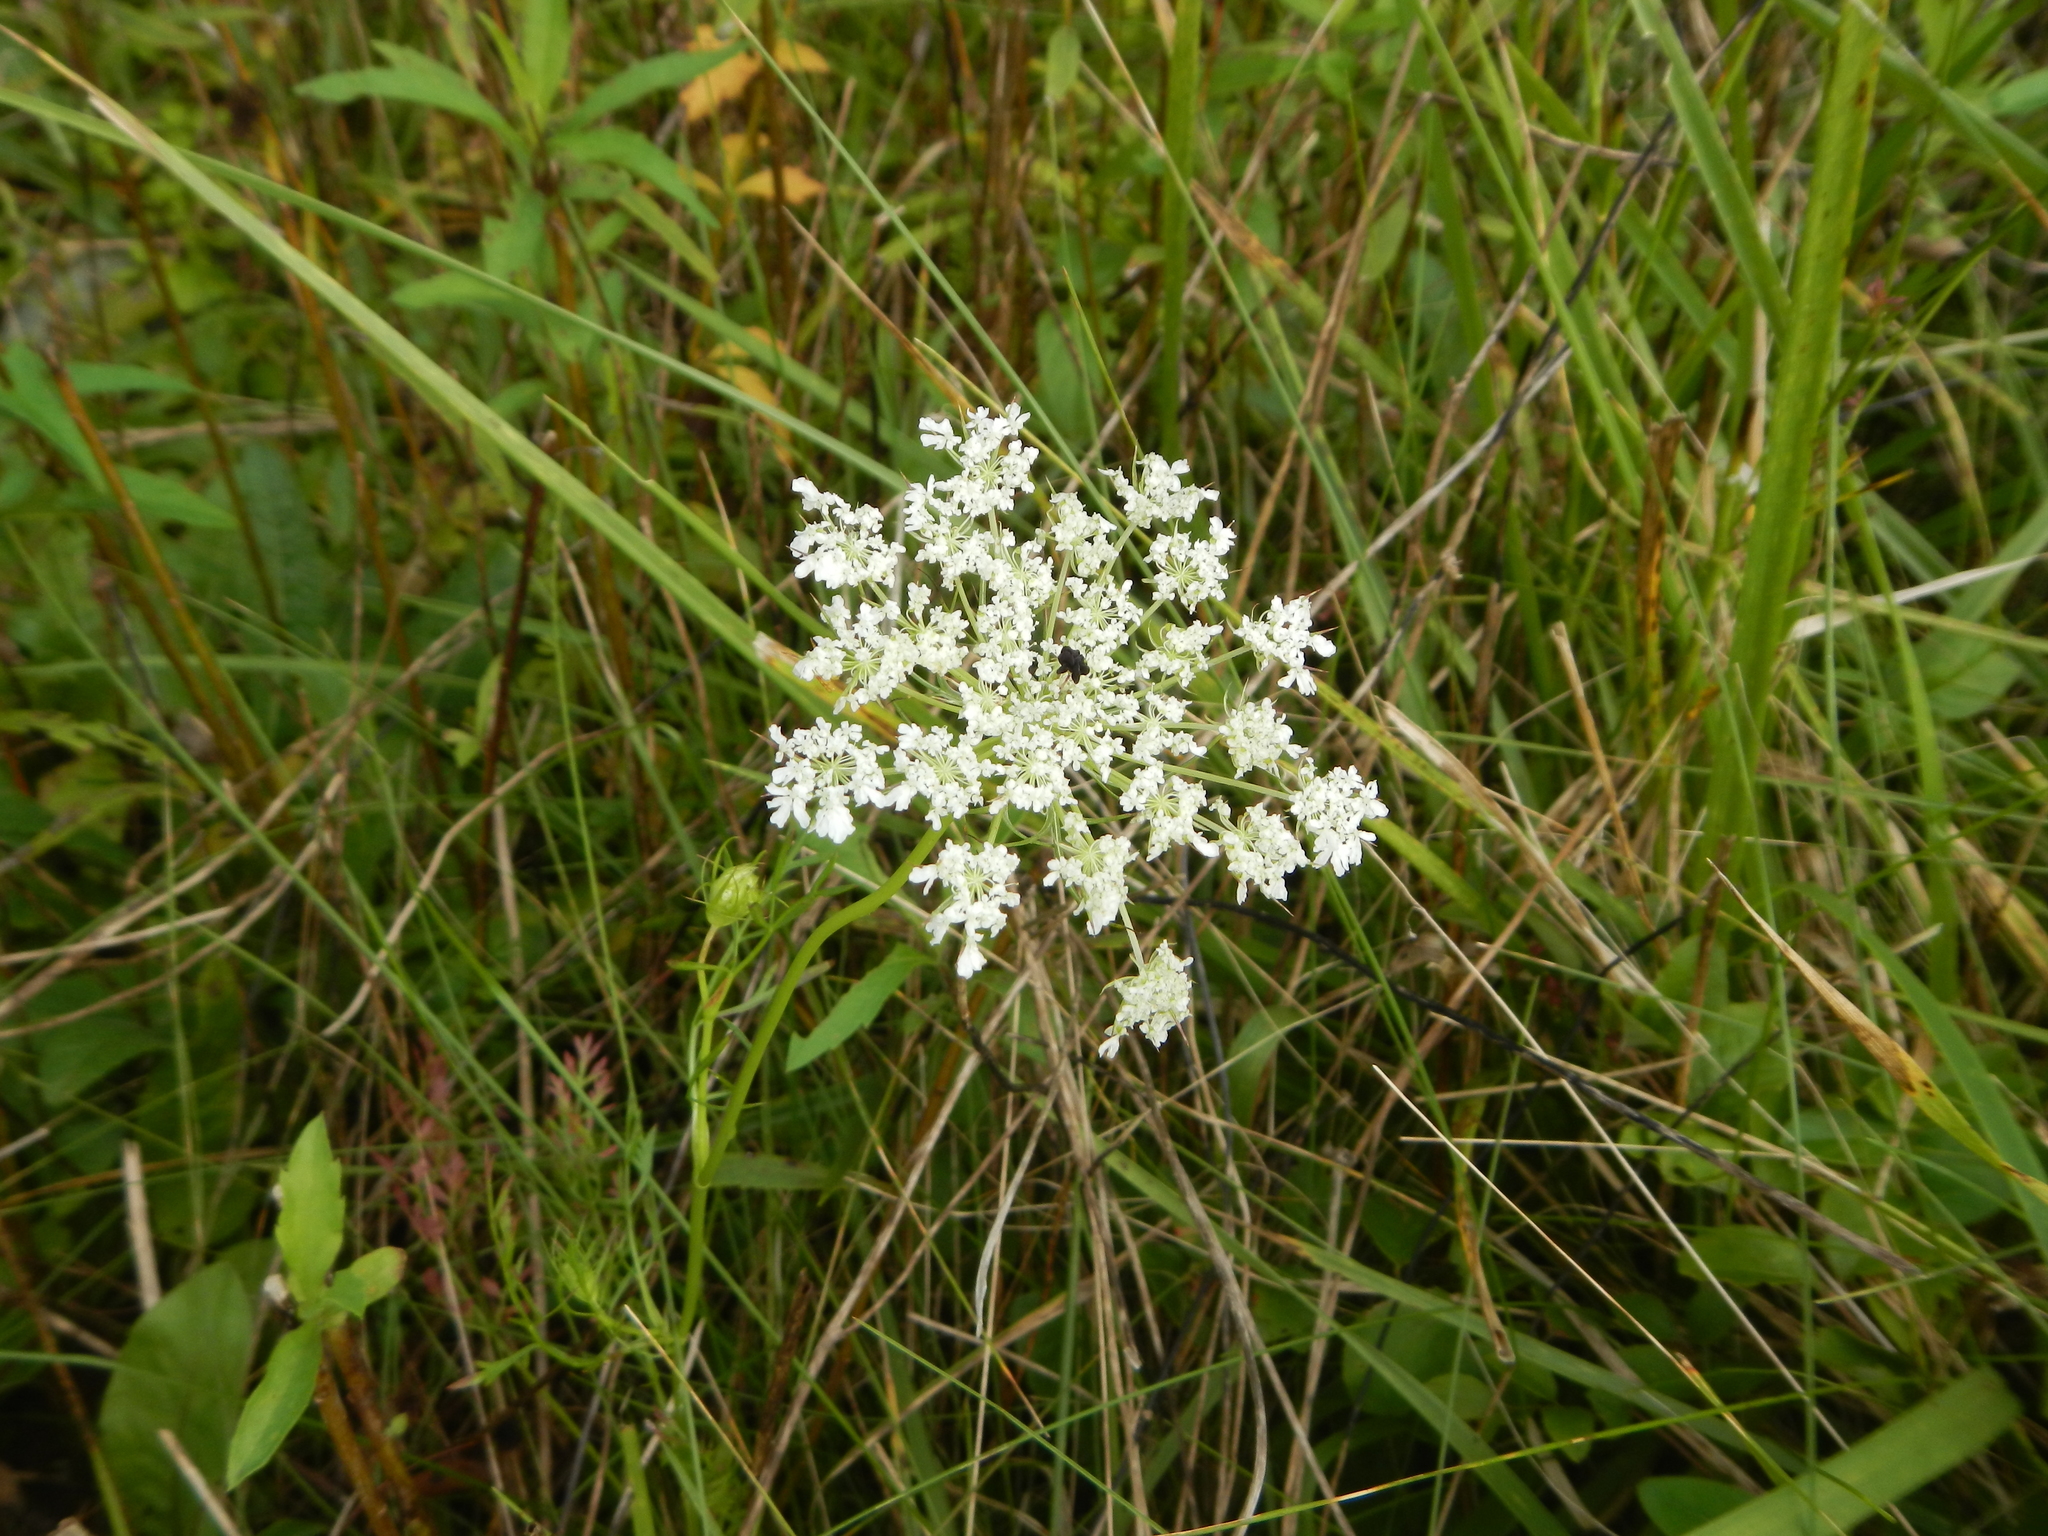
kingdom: Plantae
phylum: Tracheophyta
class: Magnoliopsida
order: Apiales
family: Apiaceae
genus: Daucus
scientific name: Daucus carota
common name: Wild carrot
